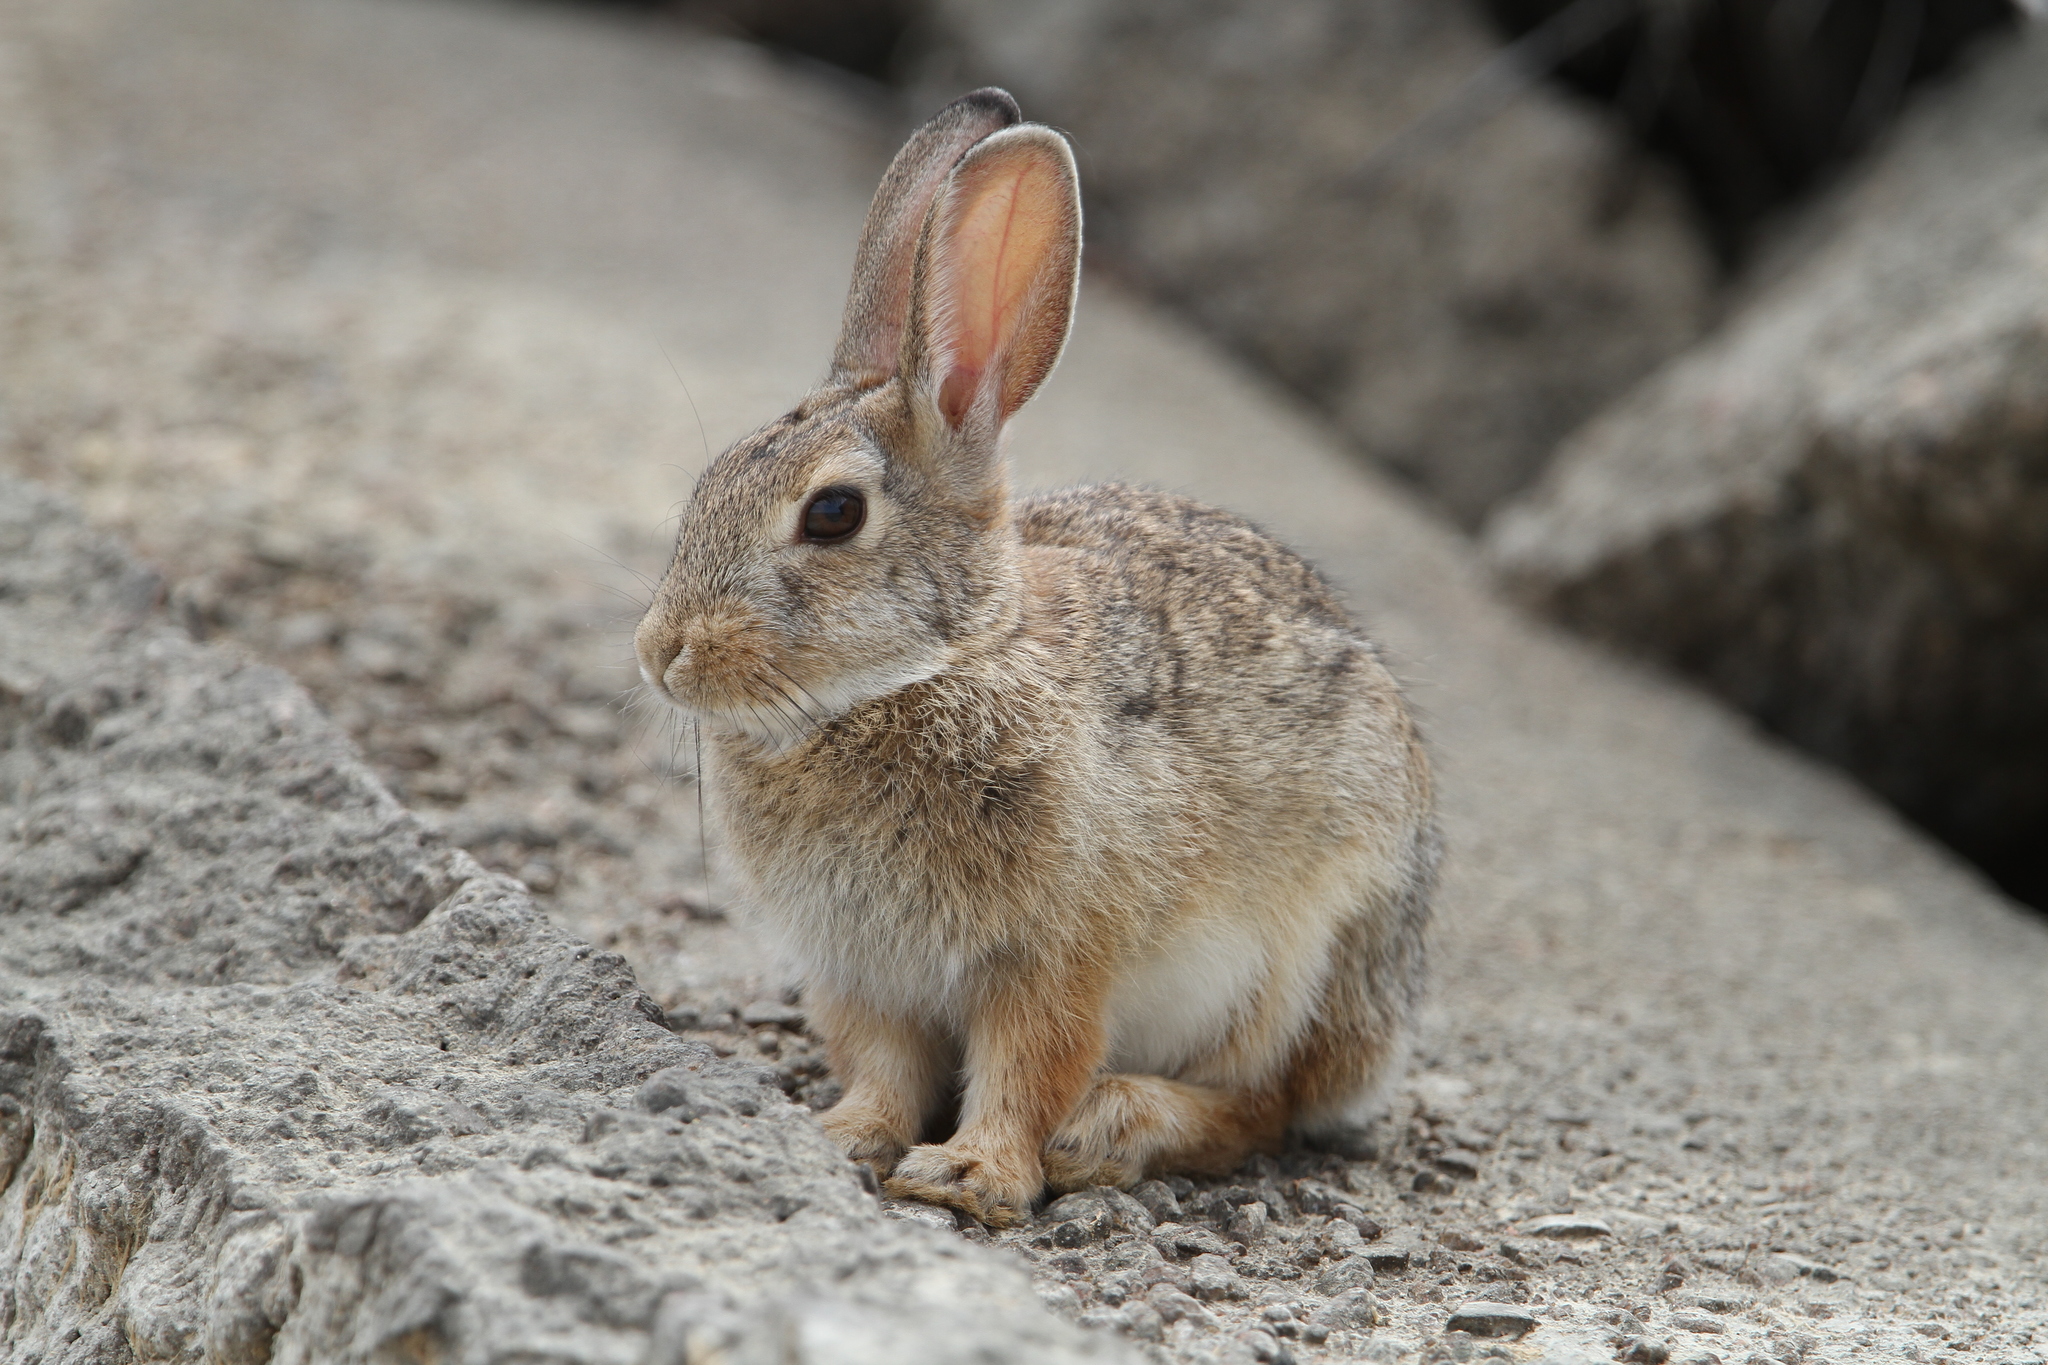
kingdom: Animalia
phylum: Chordata
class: Mammalia
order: Lagomorpha
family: Leporidae
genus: Sylvilagus
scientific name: Sylvilagus audubonii
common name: Desert cottontail
